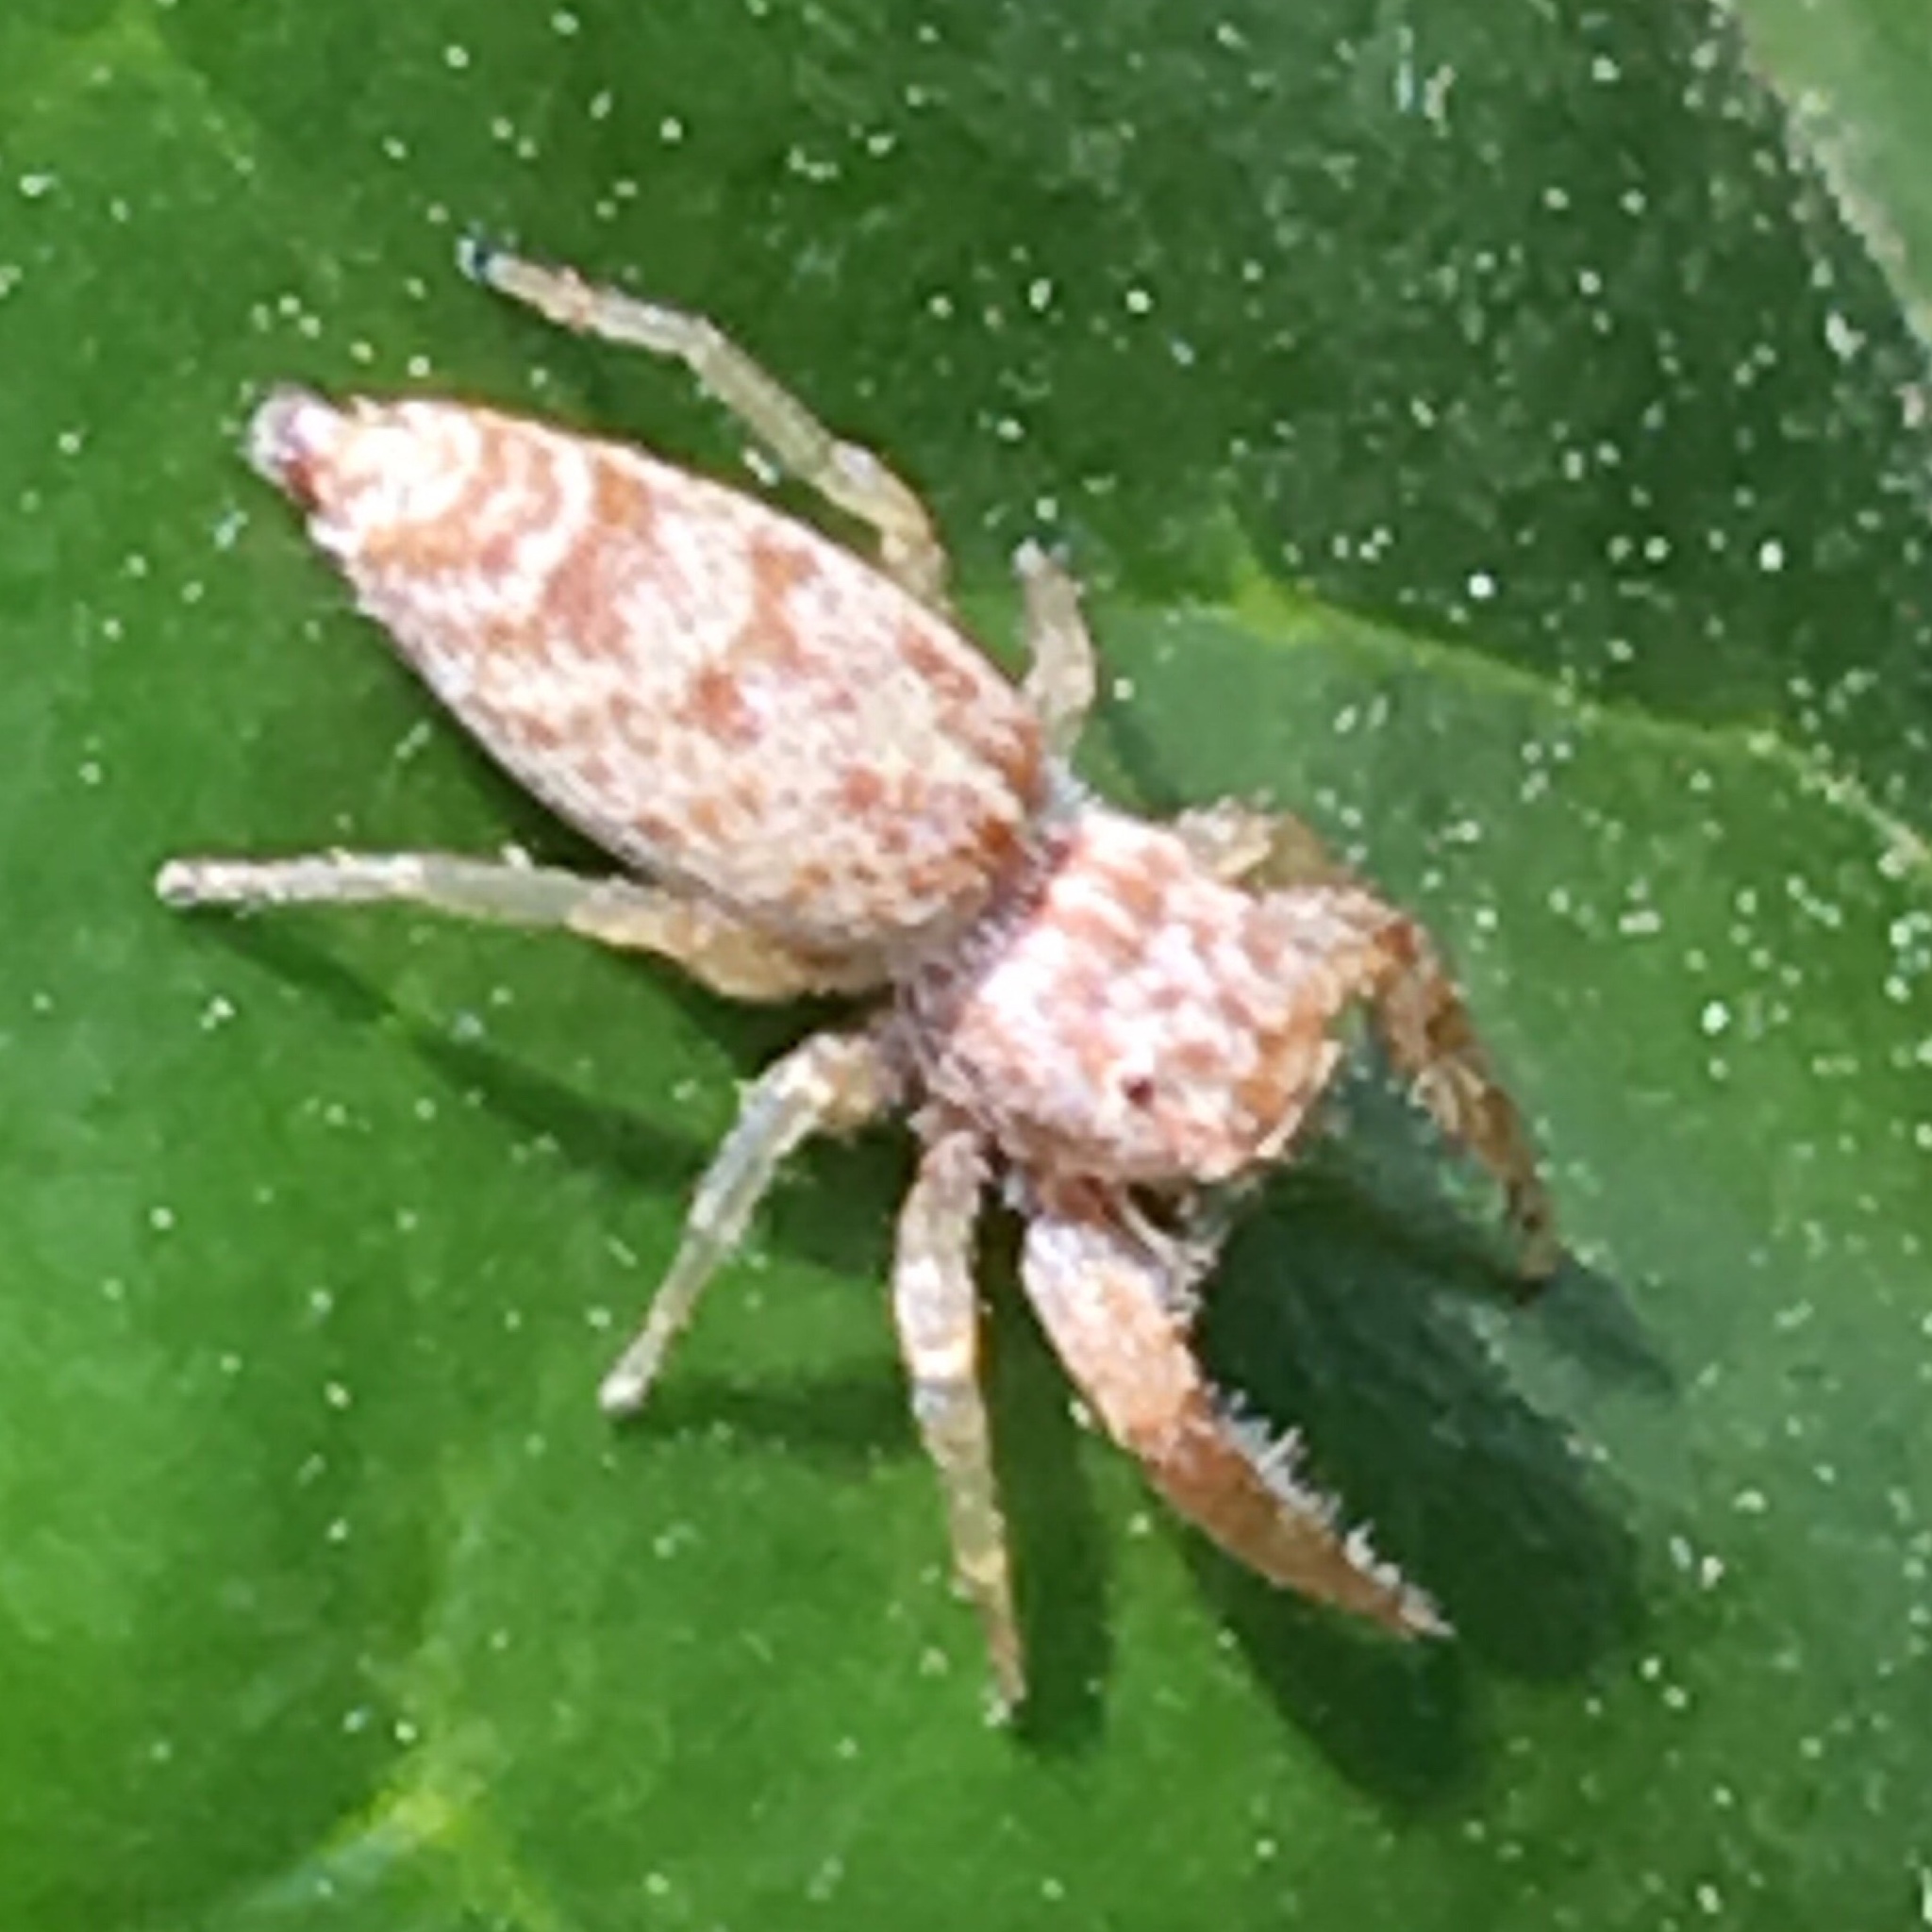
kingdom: Animalia
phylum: Arthropoda
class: Arachnida
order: Araneae
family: Salticidae
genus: Hentzia
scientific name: Hentzia palmarum
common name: Common hentz jumping spider
